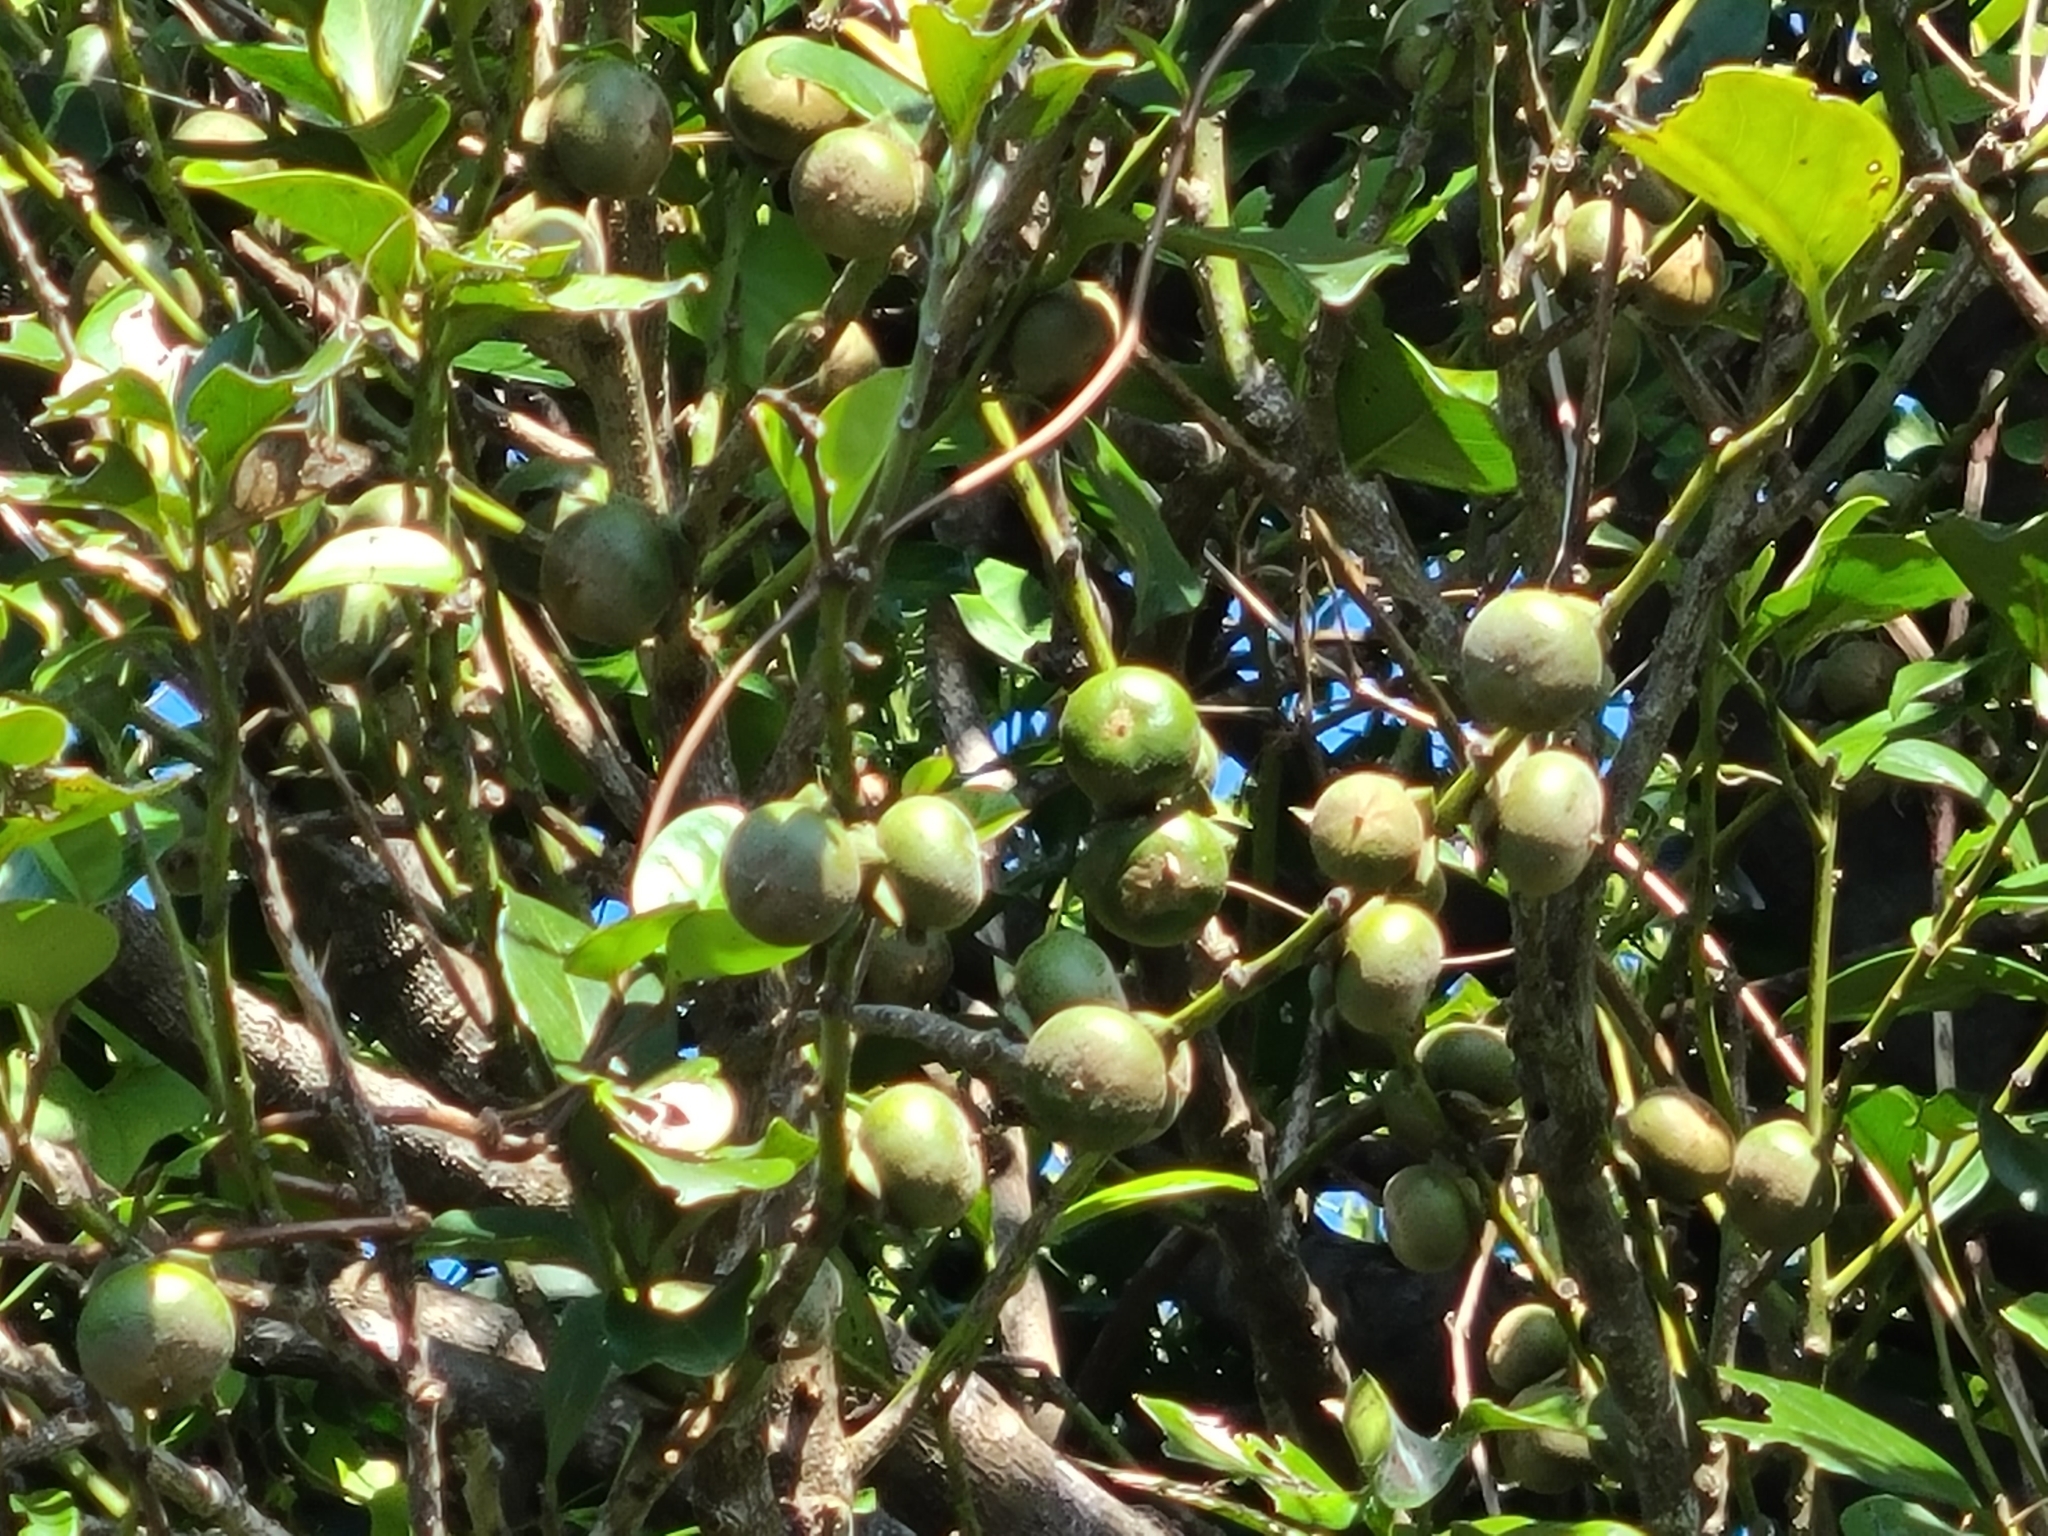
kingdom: Plantae
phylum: Tracheophyta
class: Magnoliopsida
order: Ericales
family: Ebenaceae
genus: Diospyros
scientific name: Diospyros maritima
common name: Malaysian persimmon
